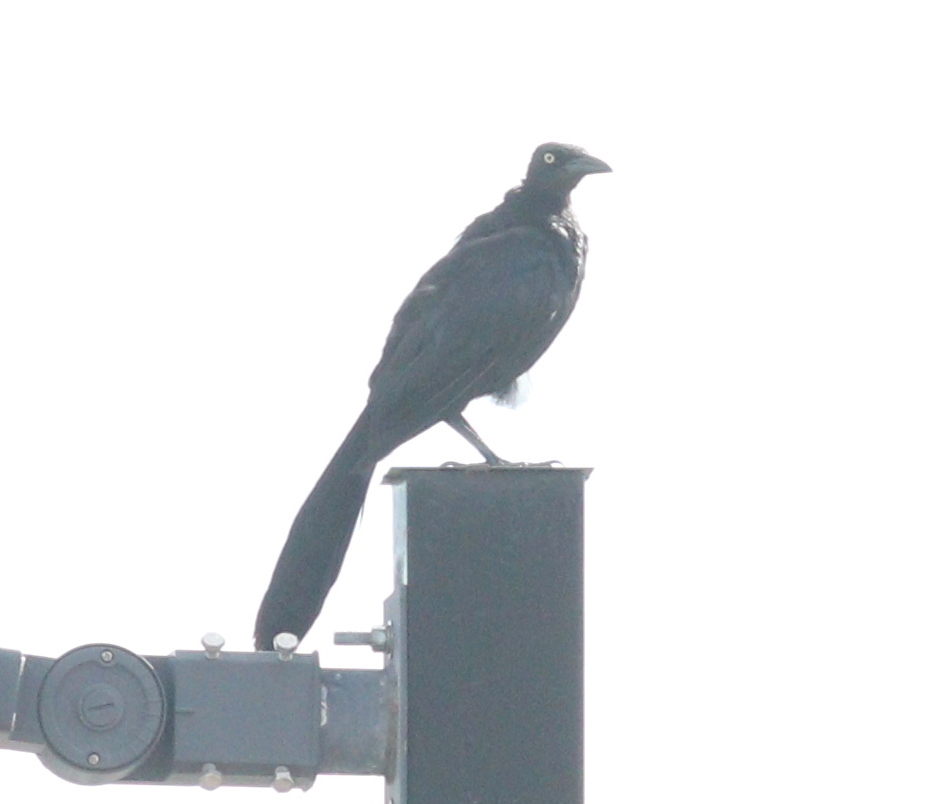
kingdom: Animalia
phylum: Chordata
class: Aves
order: Passeriformes
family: Icteridae
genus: Quiscalus
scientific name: Quiscalus mexicanus
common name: Great-tailed grackle
